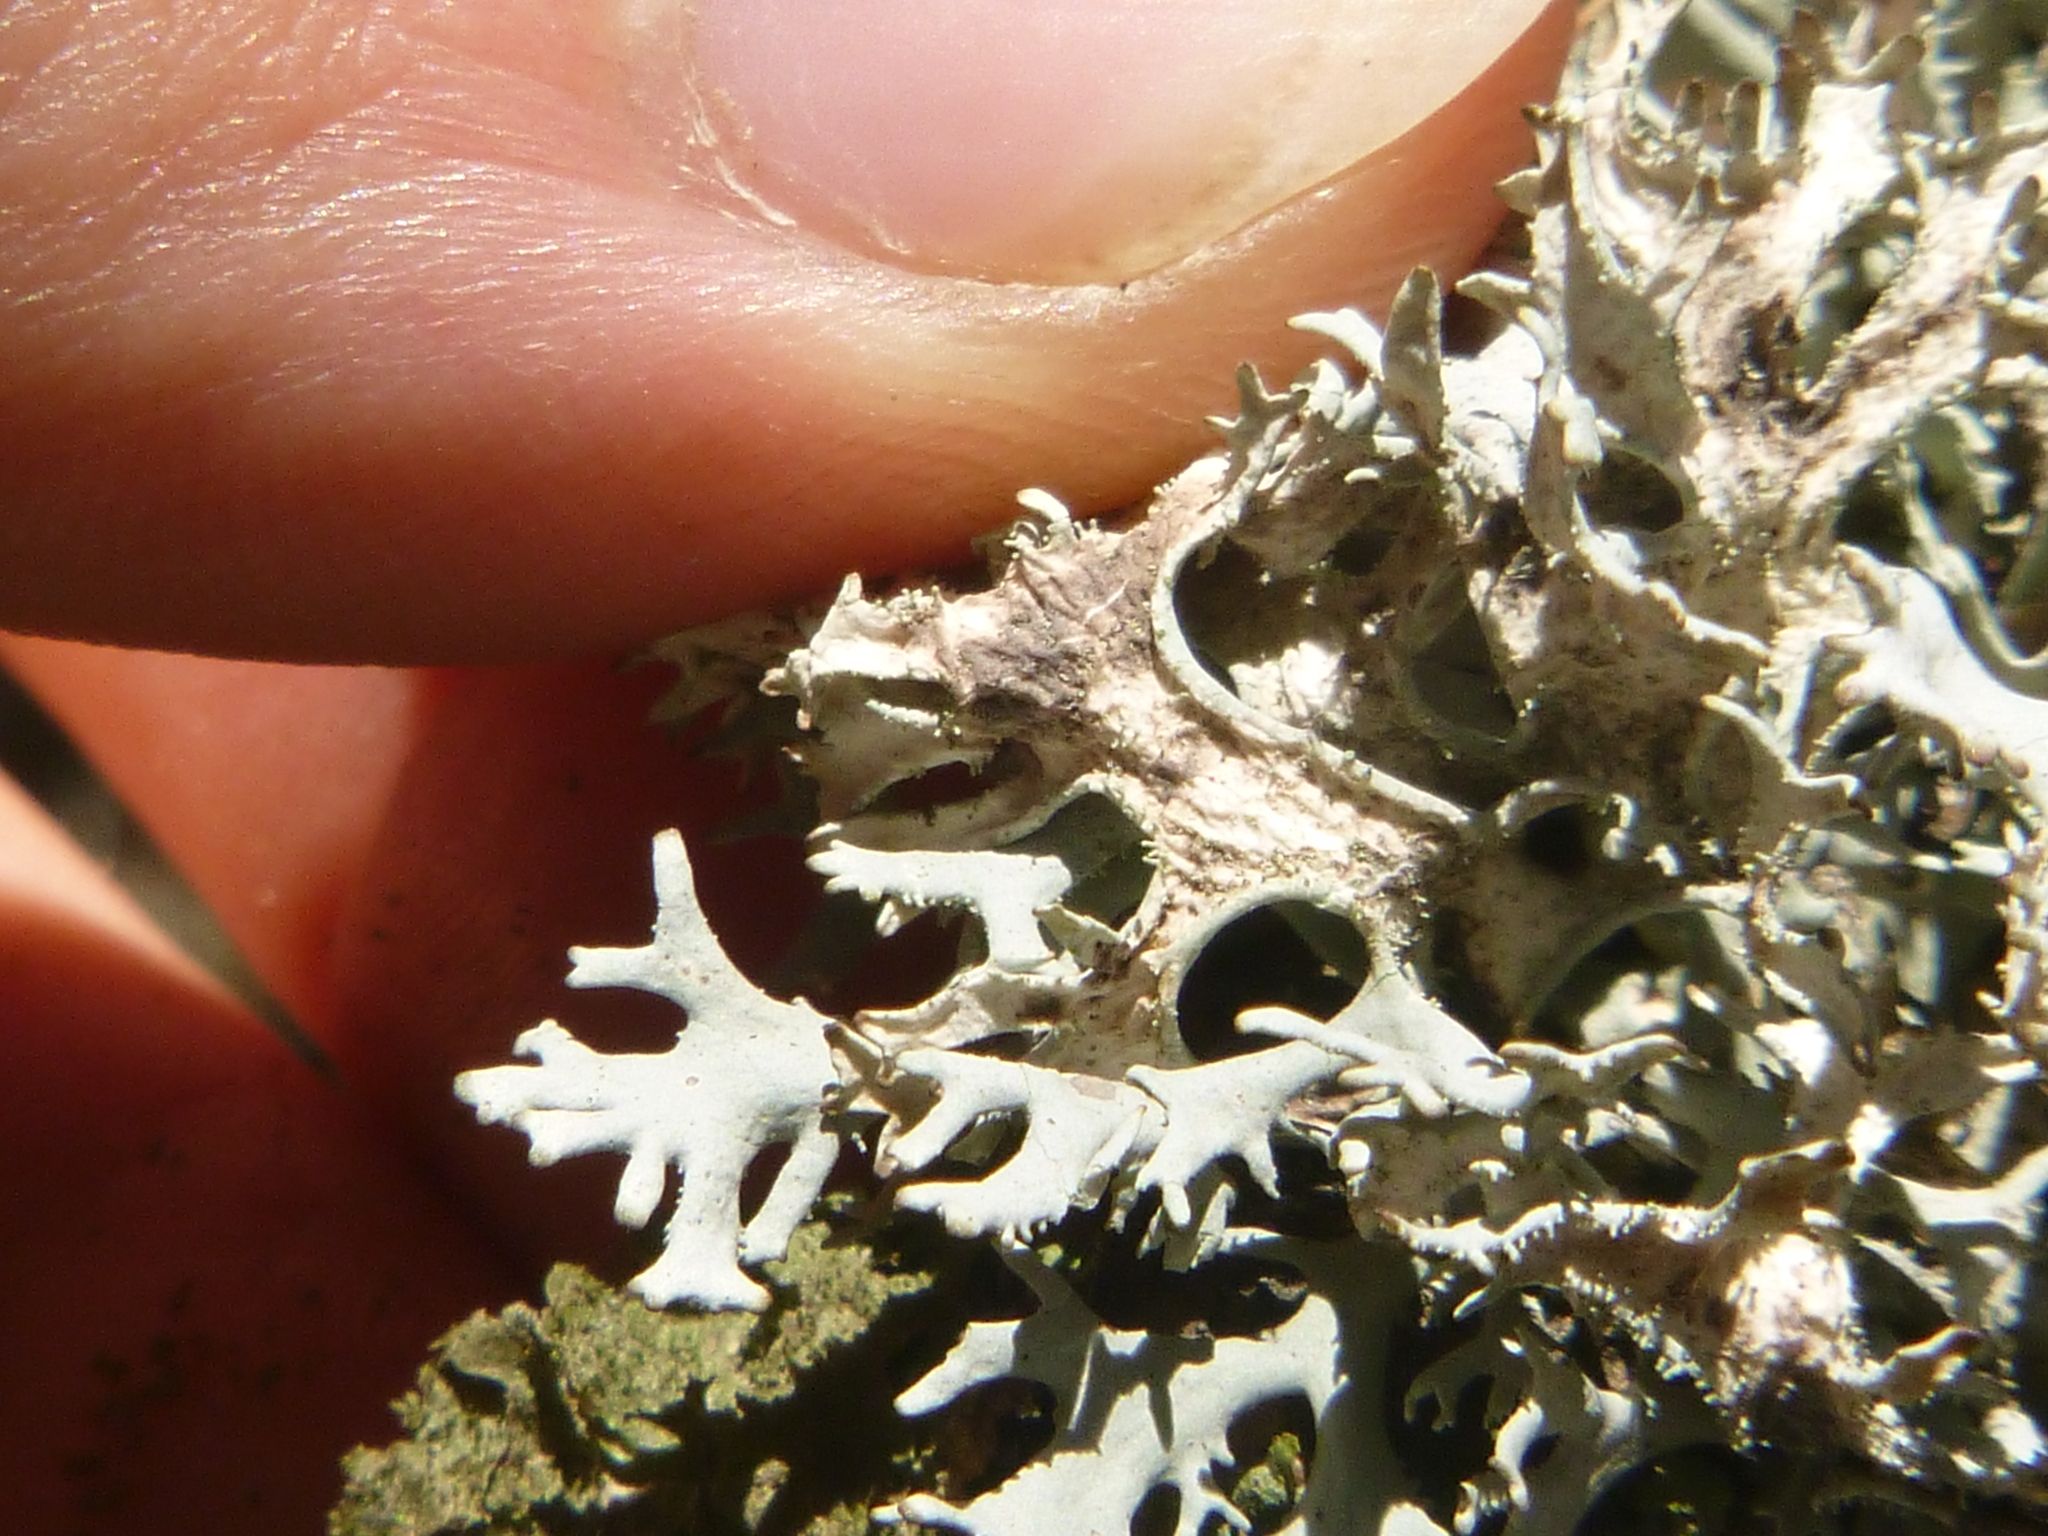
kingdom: Fungi
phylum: Ascomycota
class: Lecanoromycetes
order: Lecanorales
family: Parmeliaceae
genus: Pseudevernia
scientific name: Pseudevernia furfuracea
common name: Tree moss
